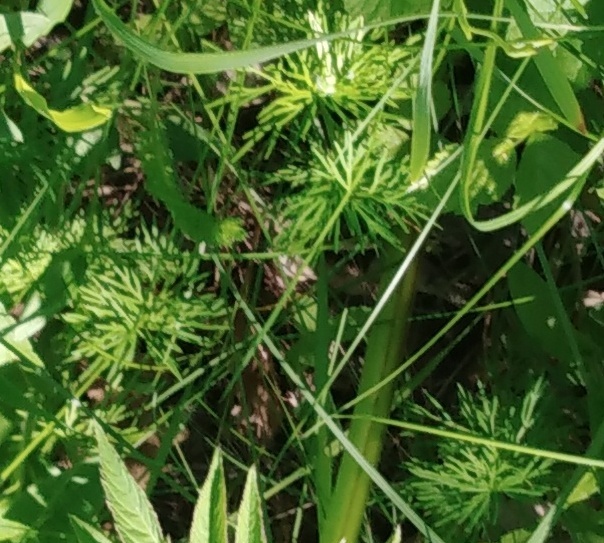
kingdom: Plantae
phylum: Tracheophyta
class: Magnoliopsida
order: Apiales
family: Apiaceae
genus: Kadenia
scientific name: Kadenia dubia
